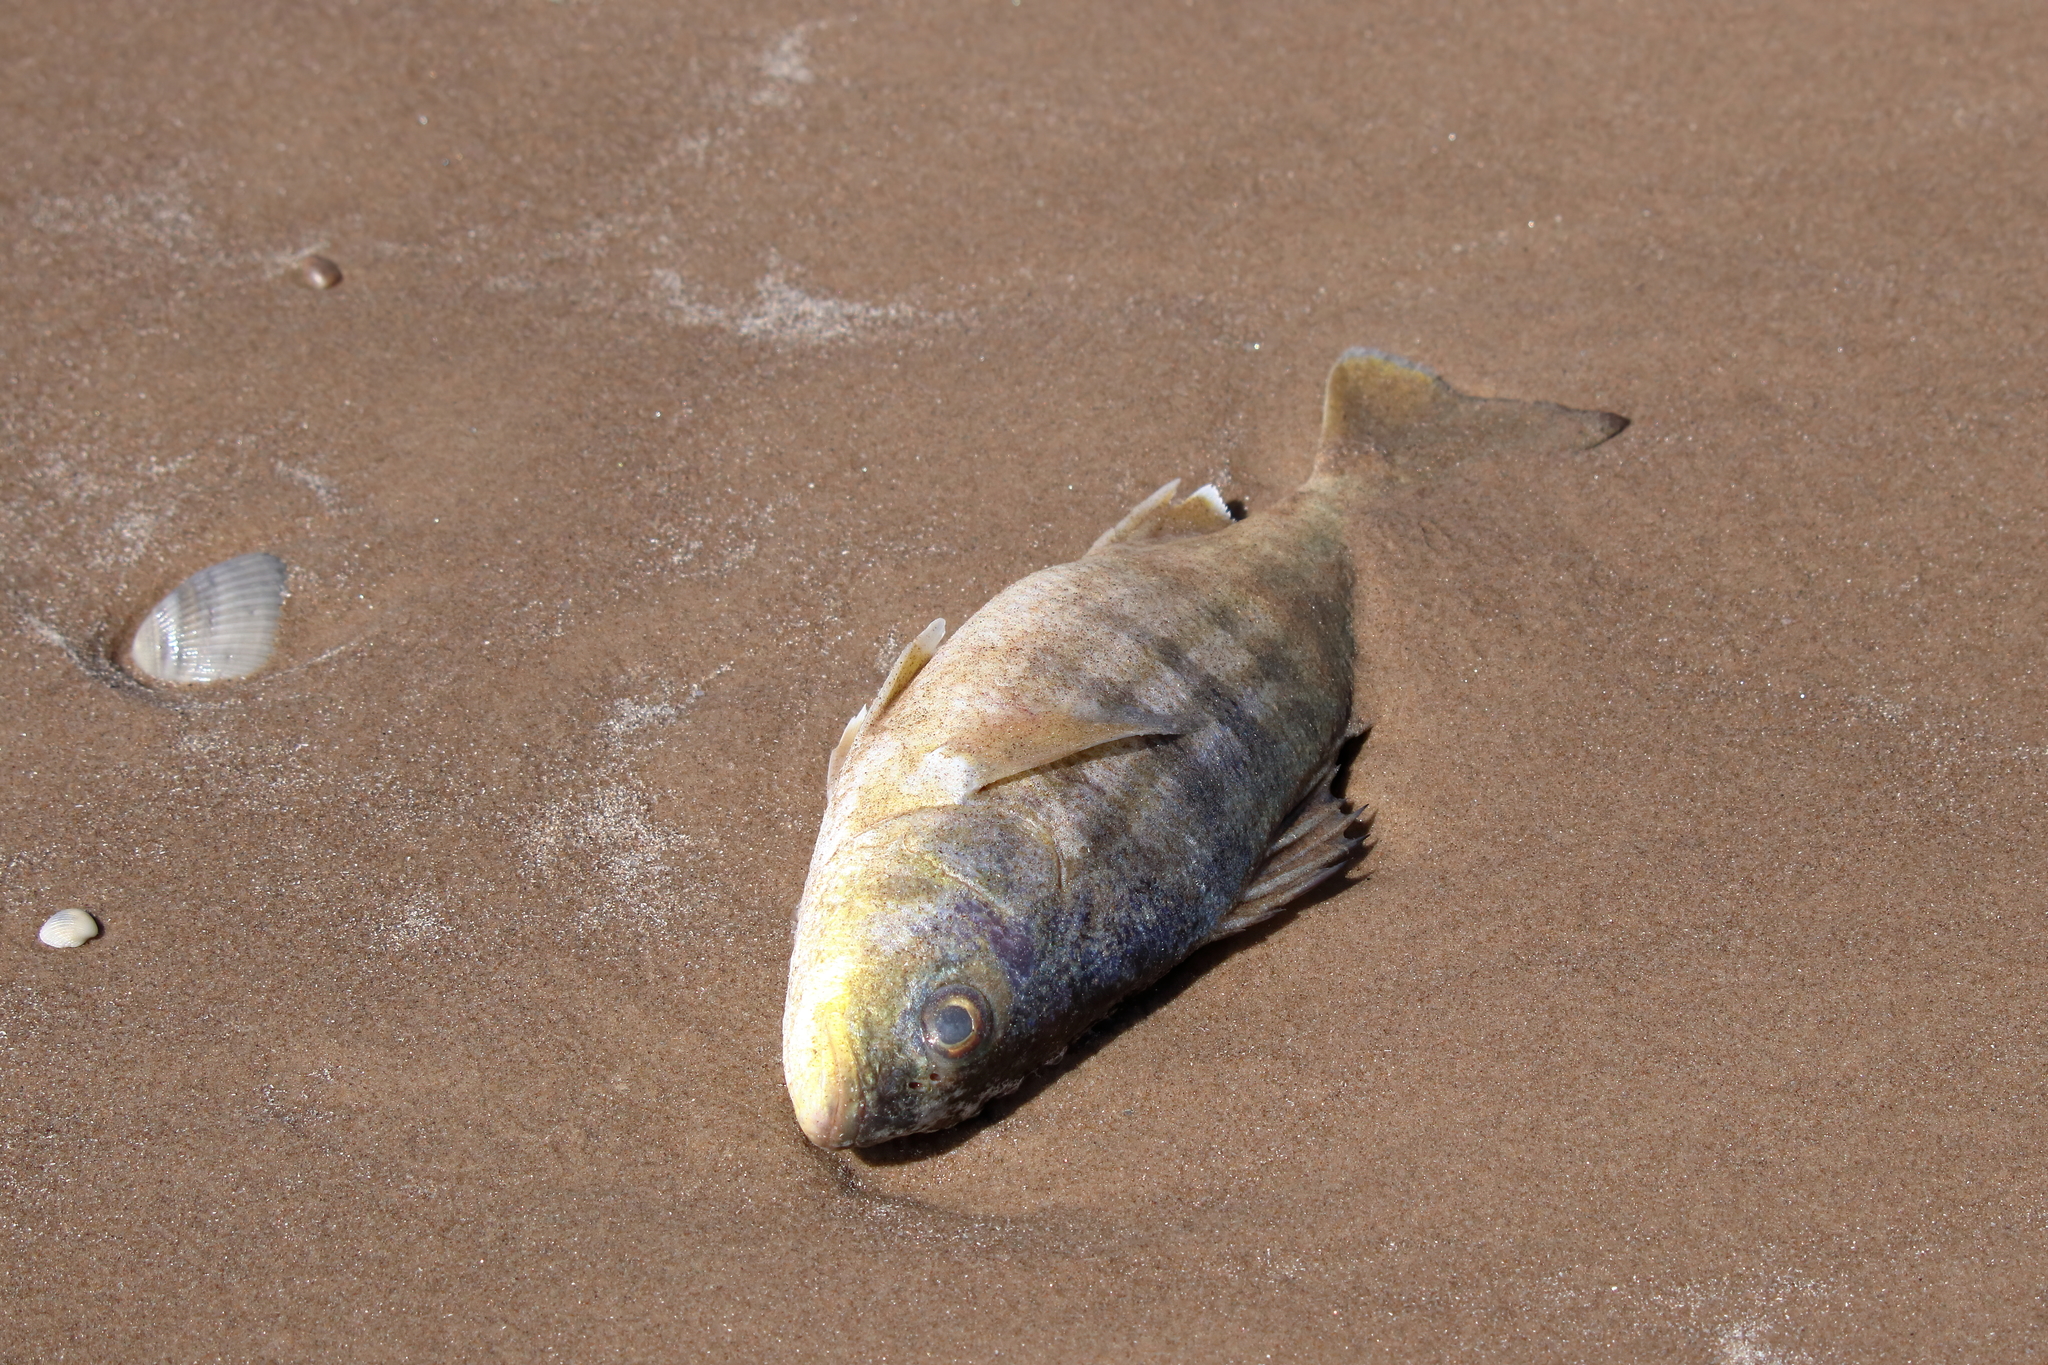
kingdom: Animalia
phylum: Chordata
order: Perciformes
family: Haemulidae
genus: Conodon
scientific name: Conodon nobilis
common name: Barred grunt
